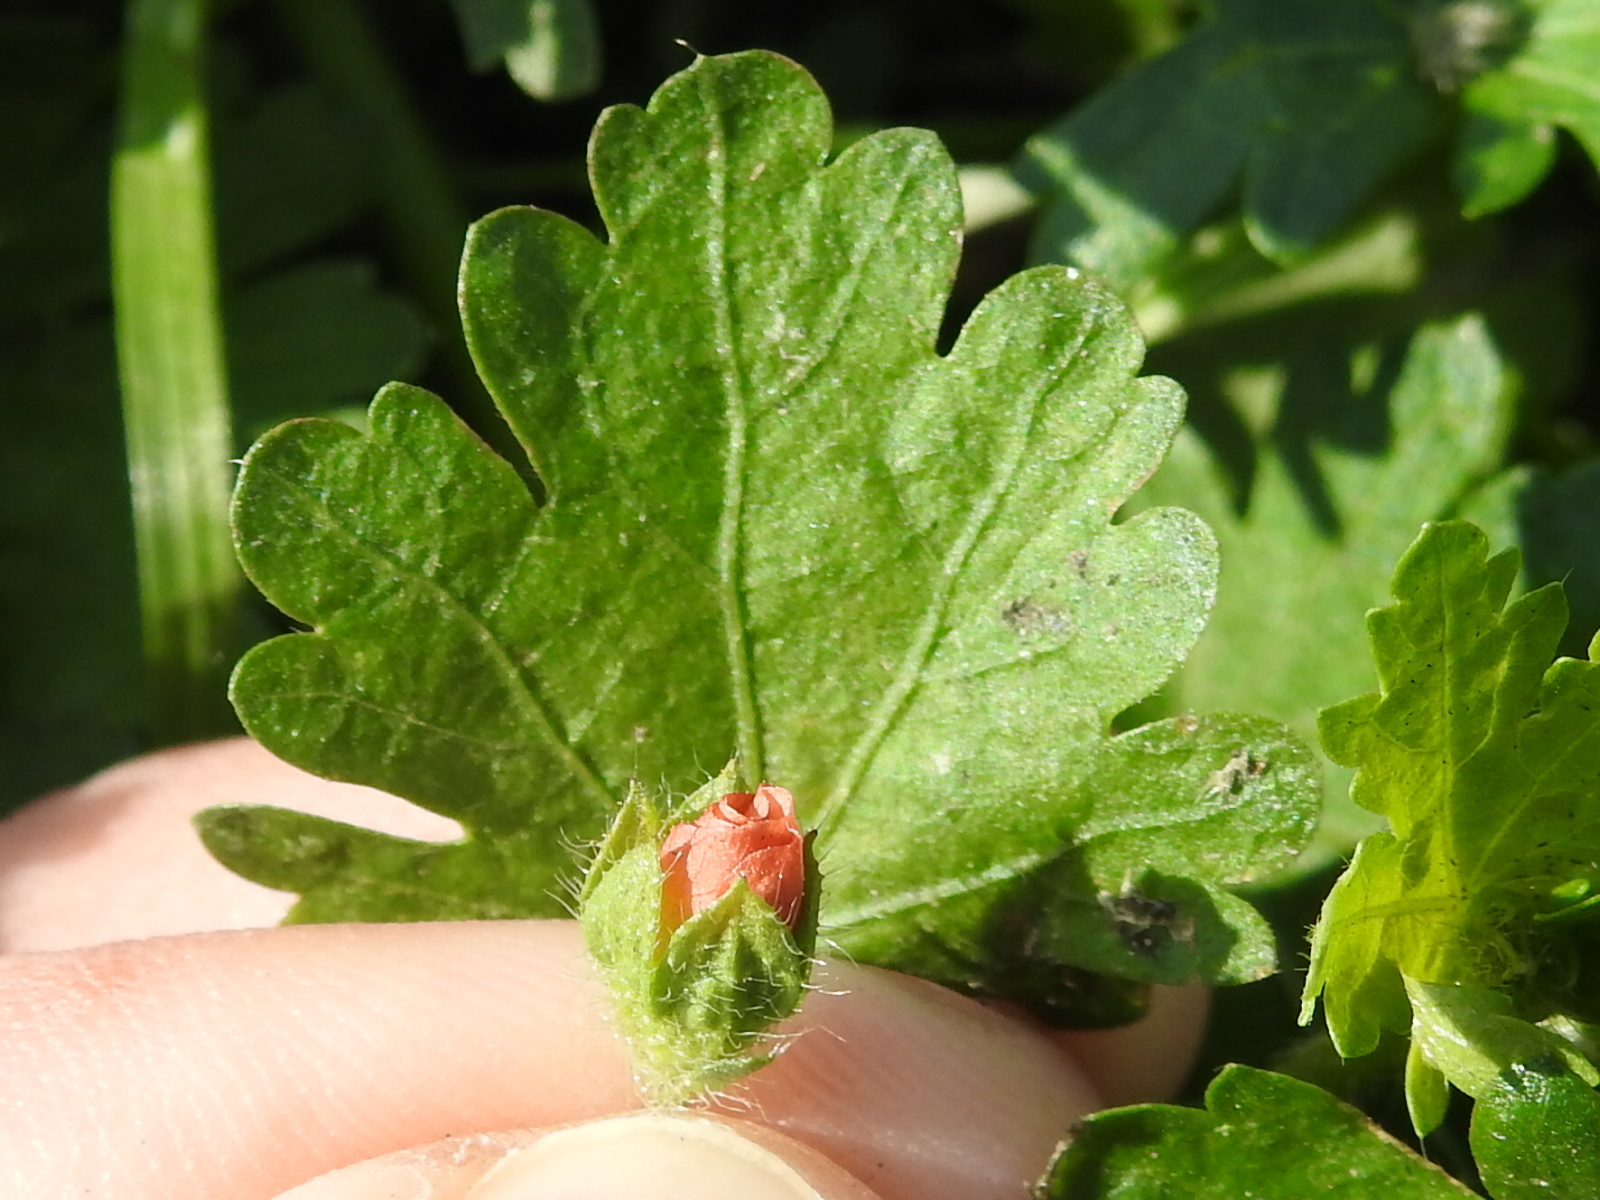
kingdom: Plantae
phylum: Tracheophyta
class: Magnoliopsida
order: Malvales
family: Malvaceae
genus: Modiola
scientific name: Modiola caroliniana
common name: Carolina bristlemallow
